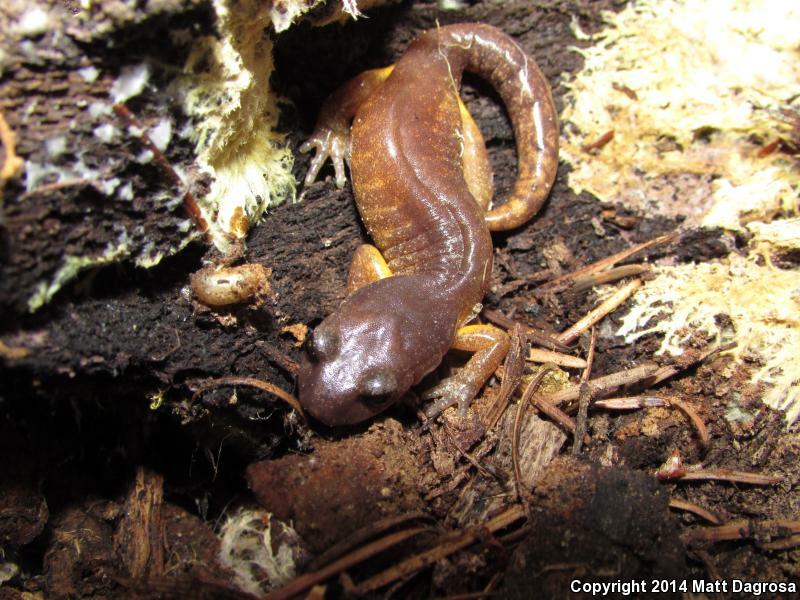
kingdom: Animalia
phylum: Chordata
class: Amphibia
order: Caudata
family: Plethodontidae
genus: Ensatina
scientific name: Ensatina eschscholtzii
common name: Ensatina
